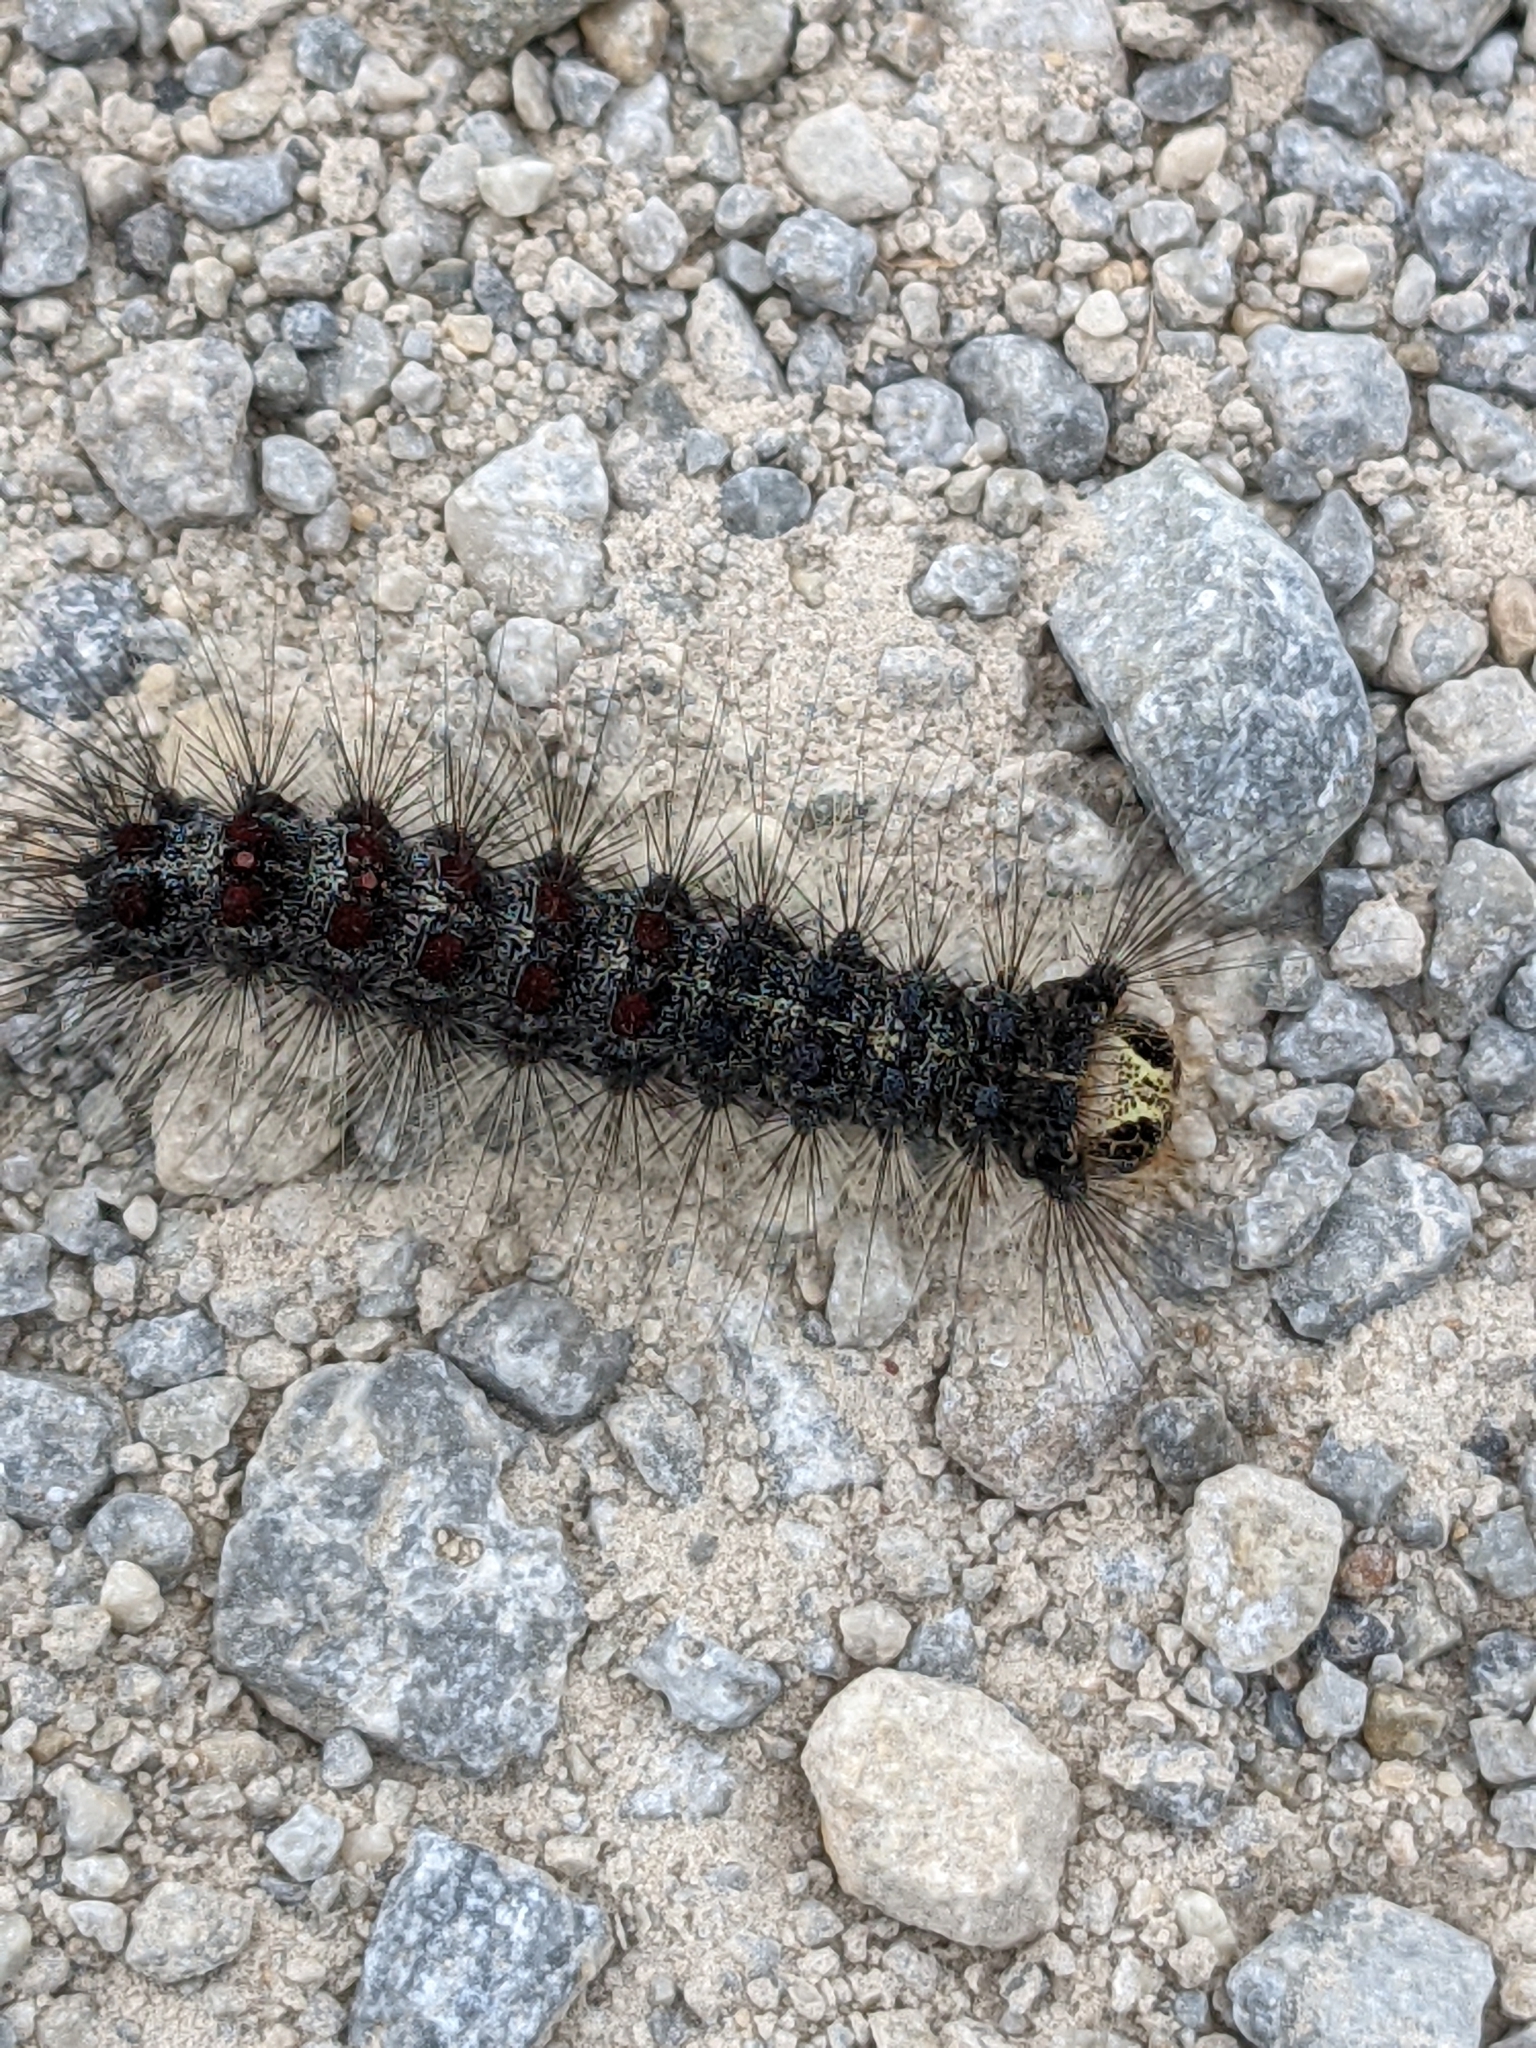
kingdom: Animalia
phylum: Arthropoda
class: Insecta
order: Lepidoptera
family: Erebidae
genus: Lymantria
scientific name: Lymantria dispar
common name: Gypsy moth
